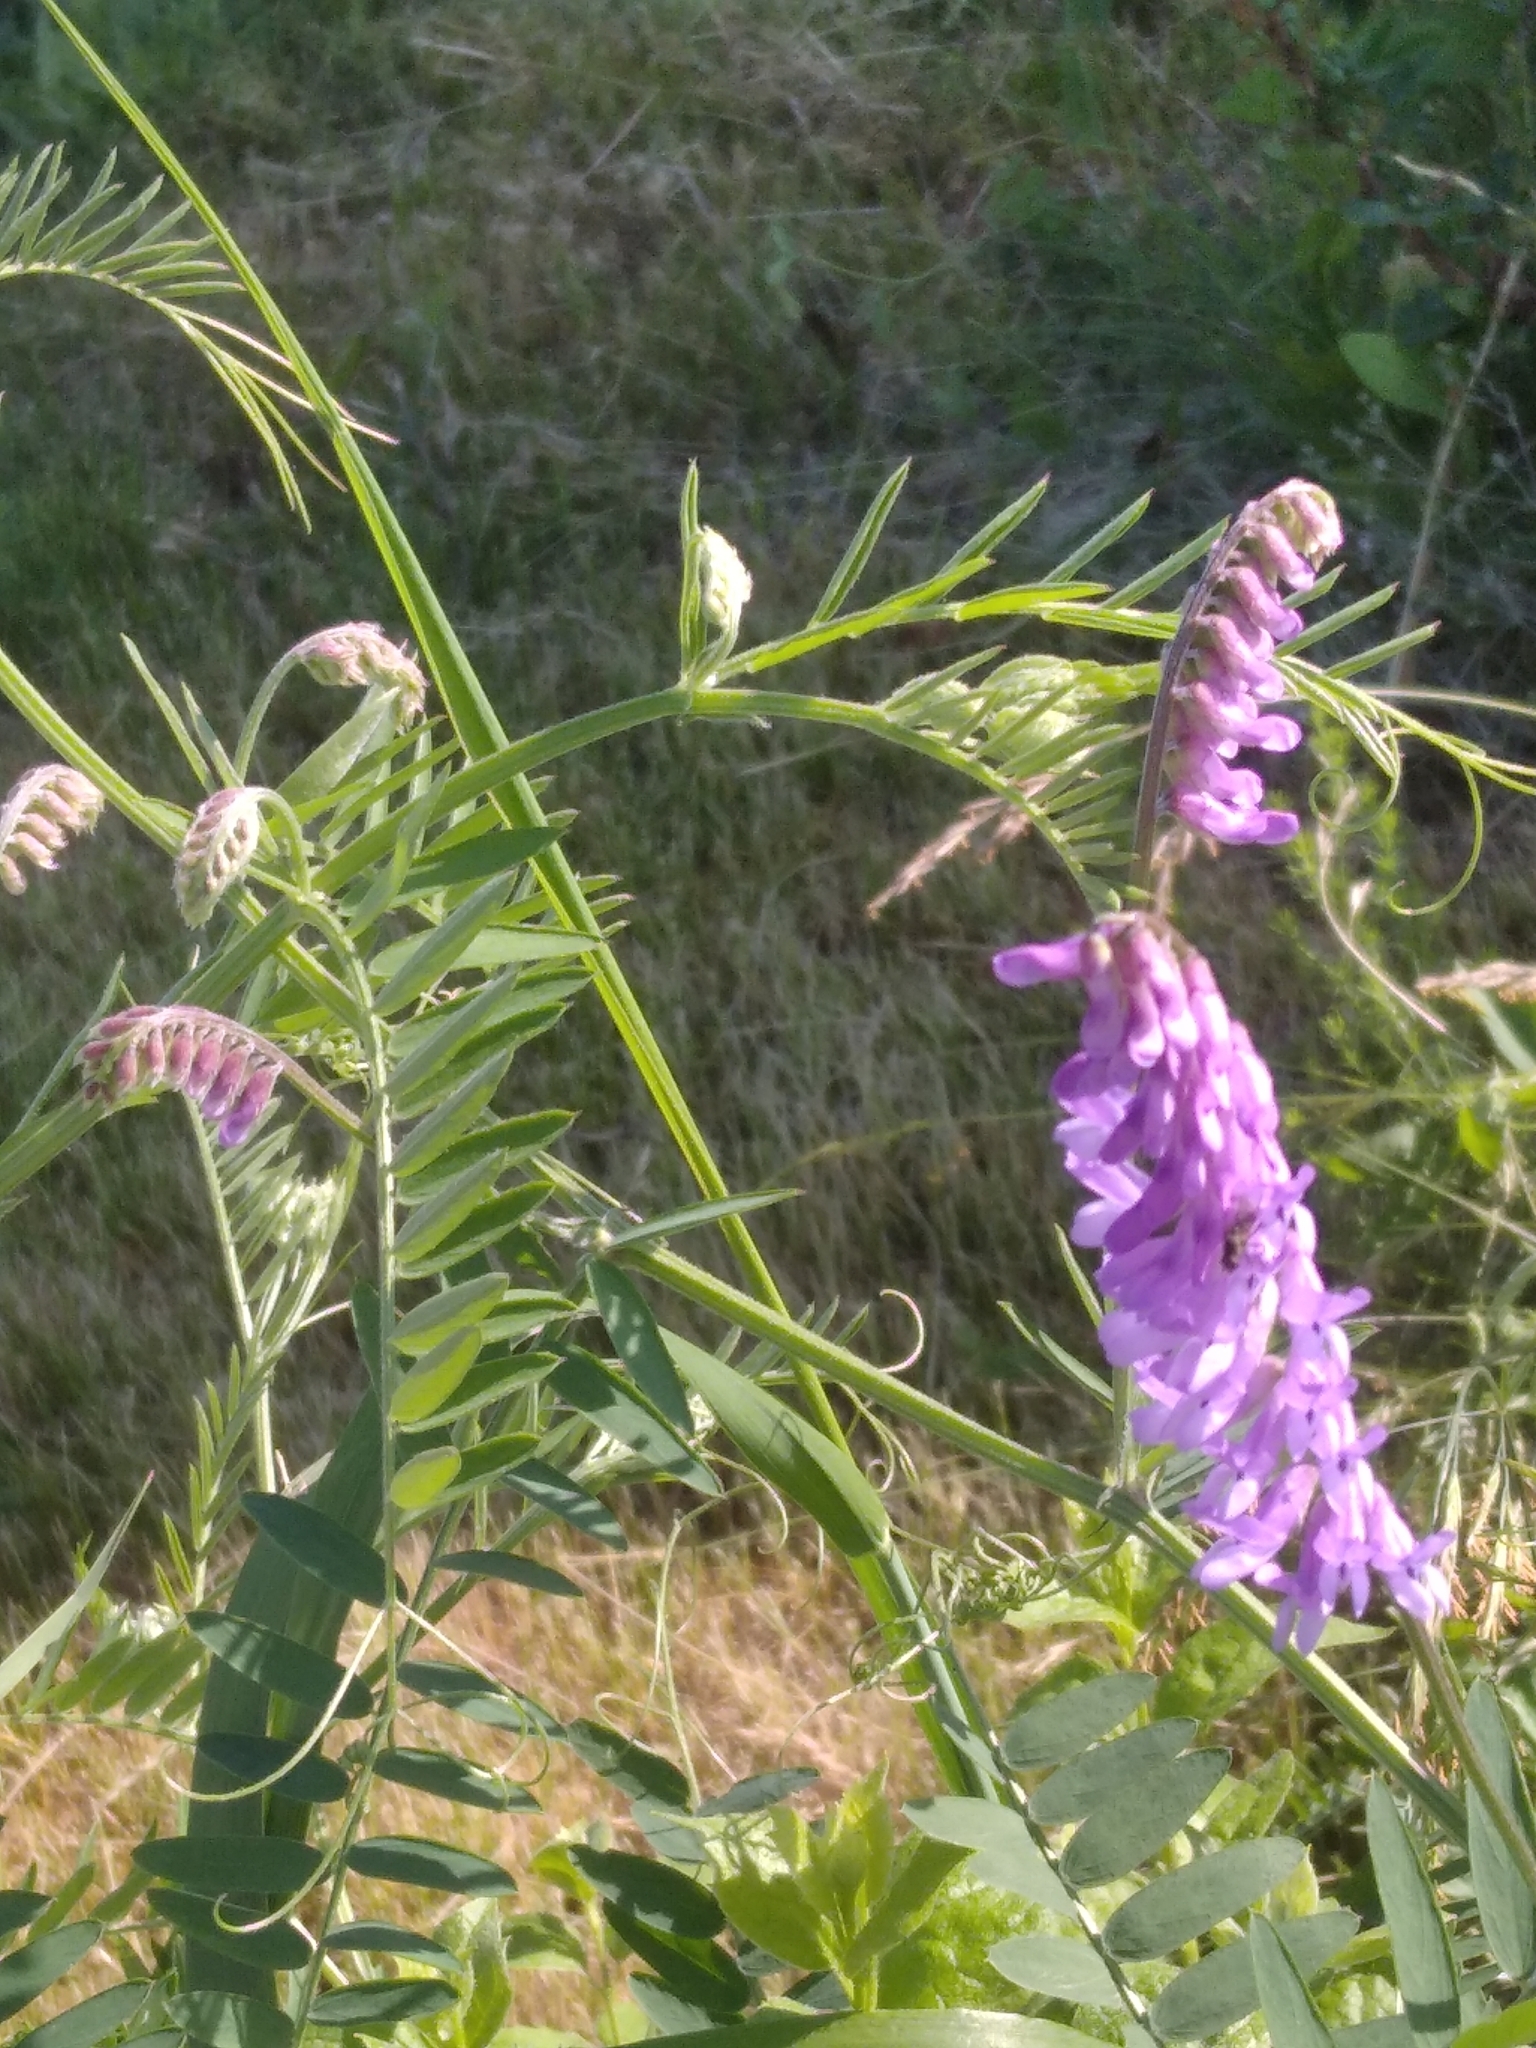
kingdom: Plantae
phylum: Tracheophyta
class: Magnoliopsida
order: Fabales
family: Fabaceae
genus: Vicia
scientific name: Vicia cracca
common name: Bird vetch
